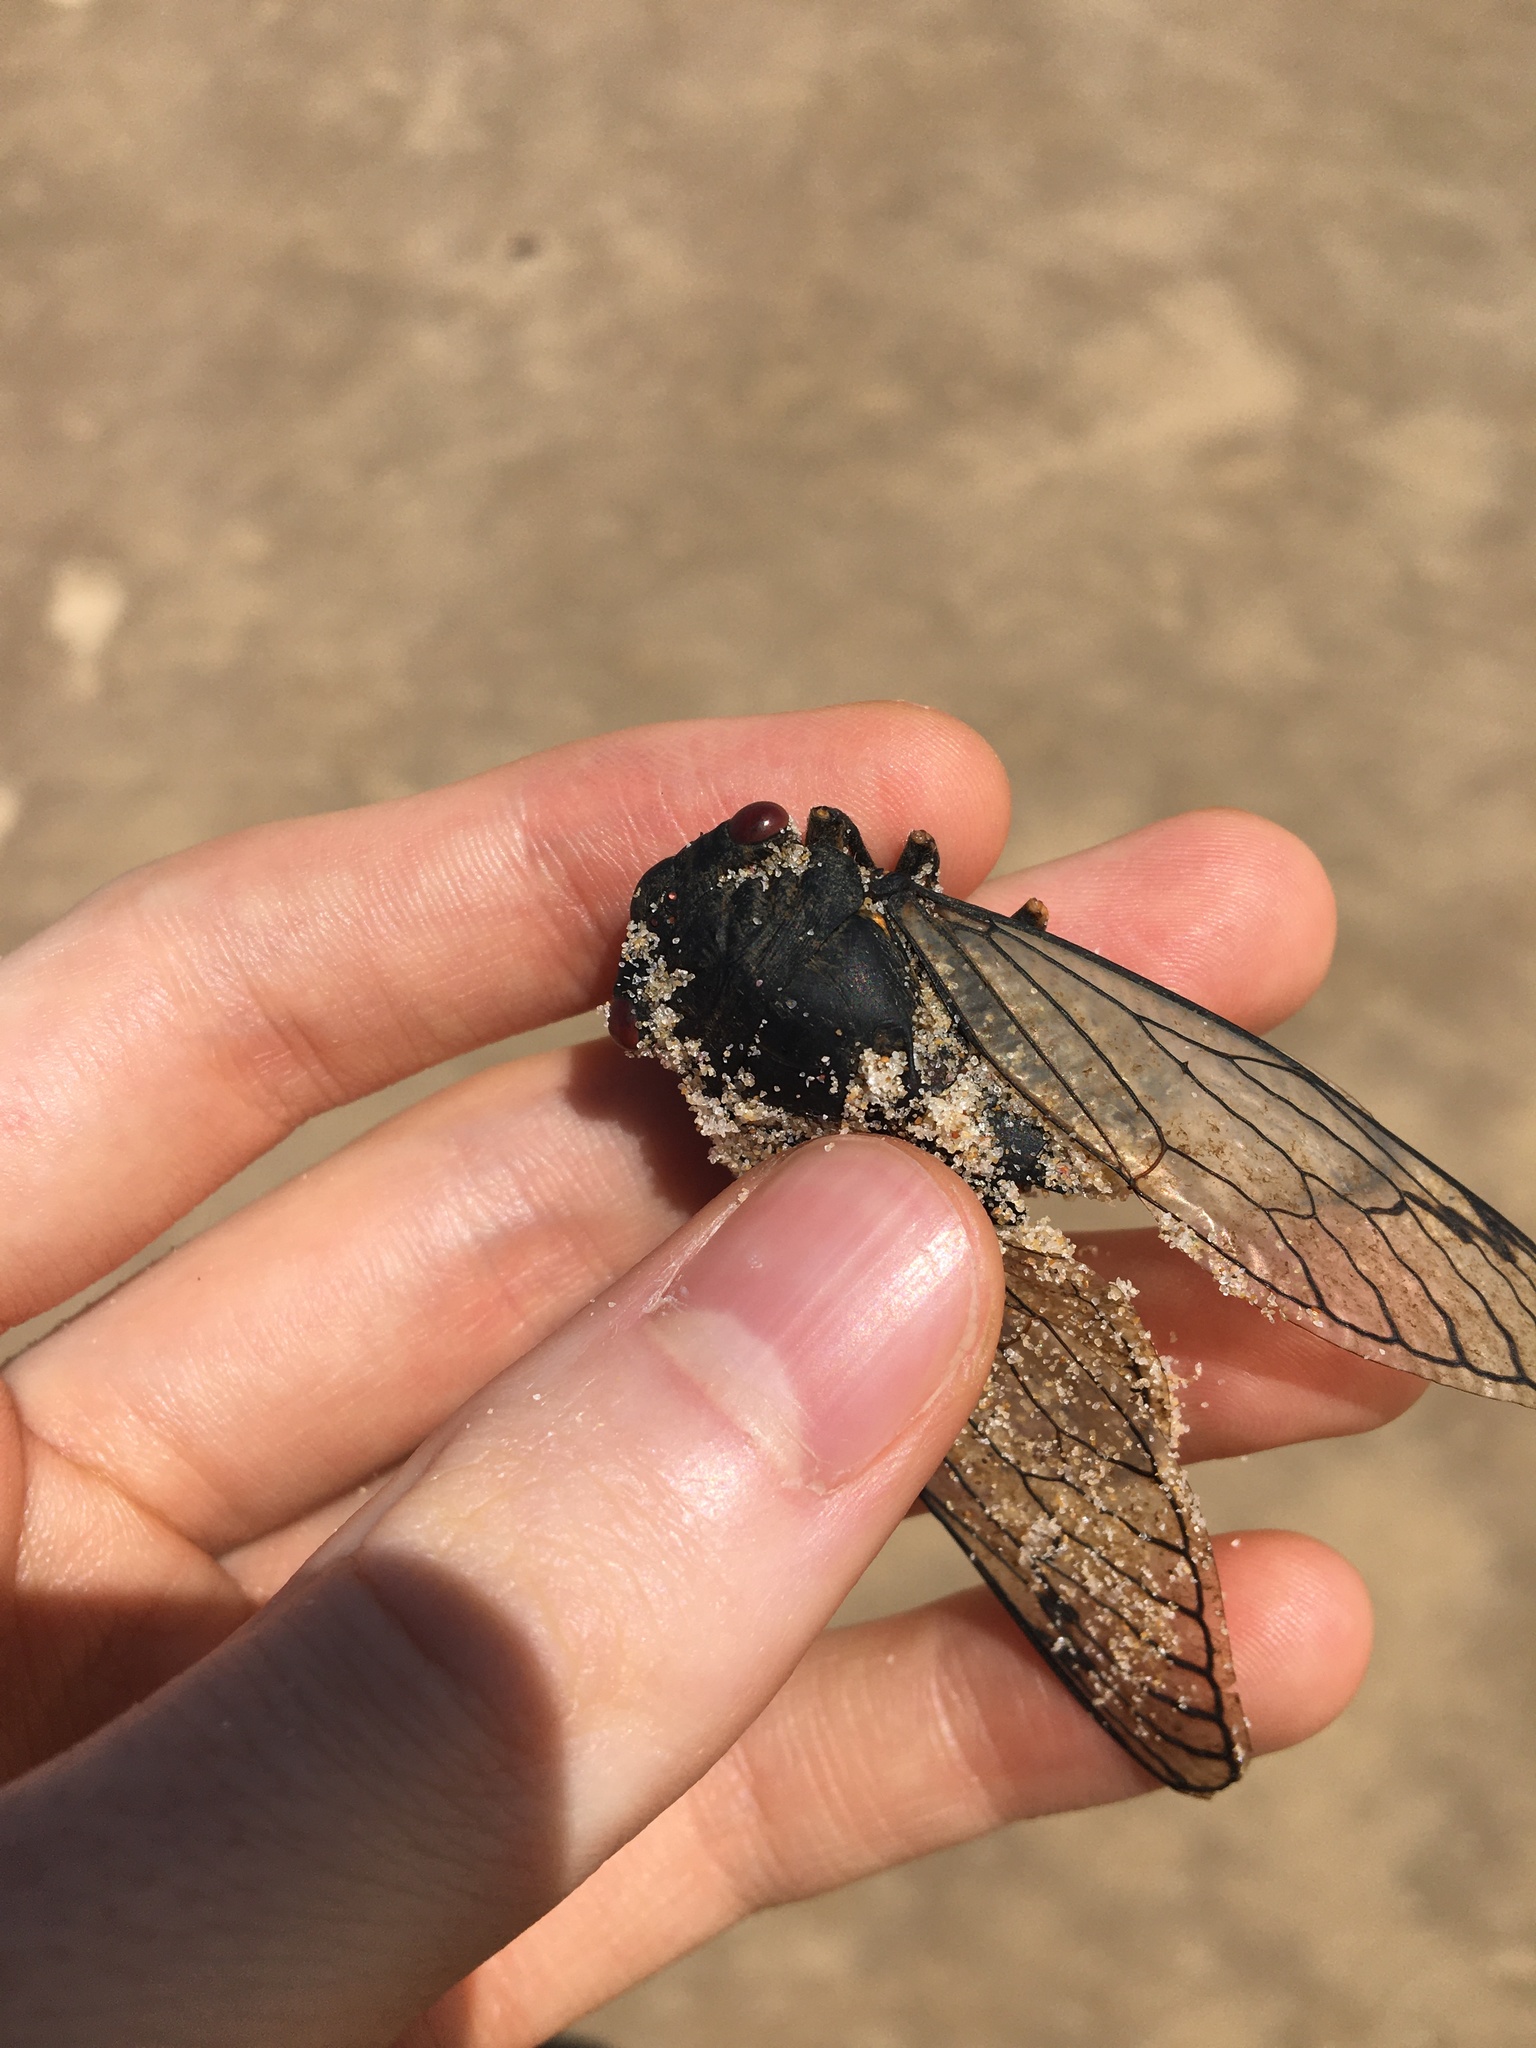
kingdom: Animalia
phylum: Arthropoda
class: Insecta
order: Hemiptera
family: Cicadidae
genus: Psaltoda
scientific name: Psaltoda moerens
